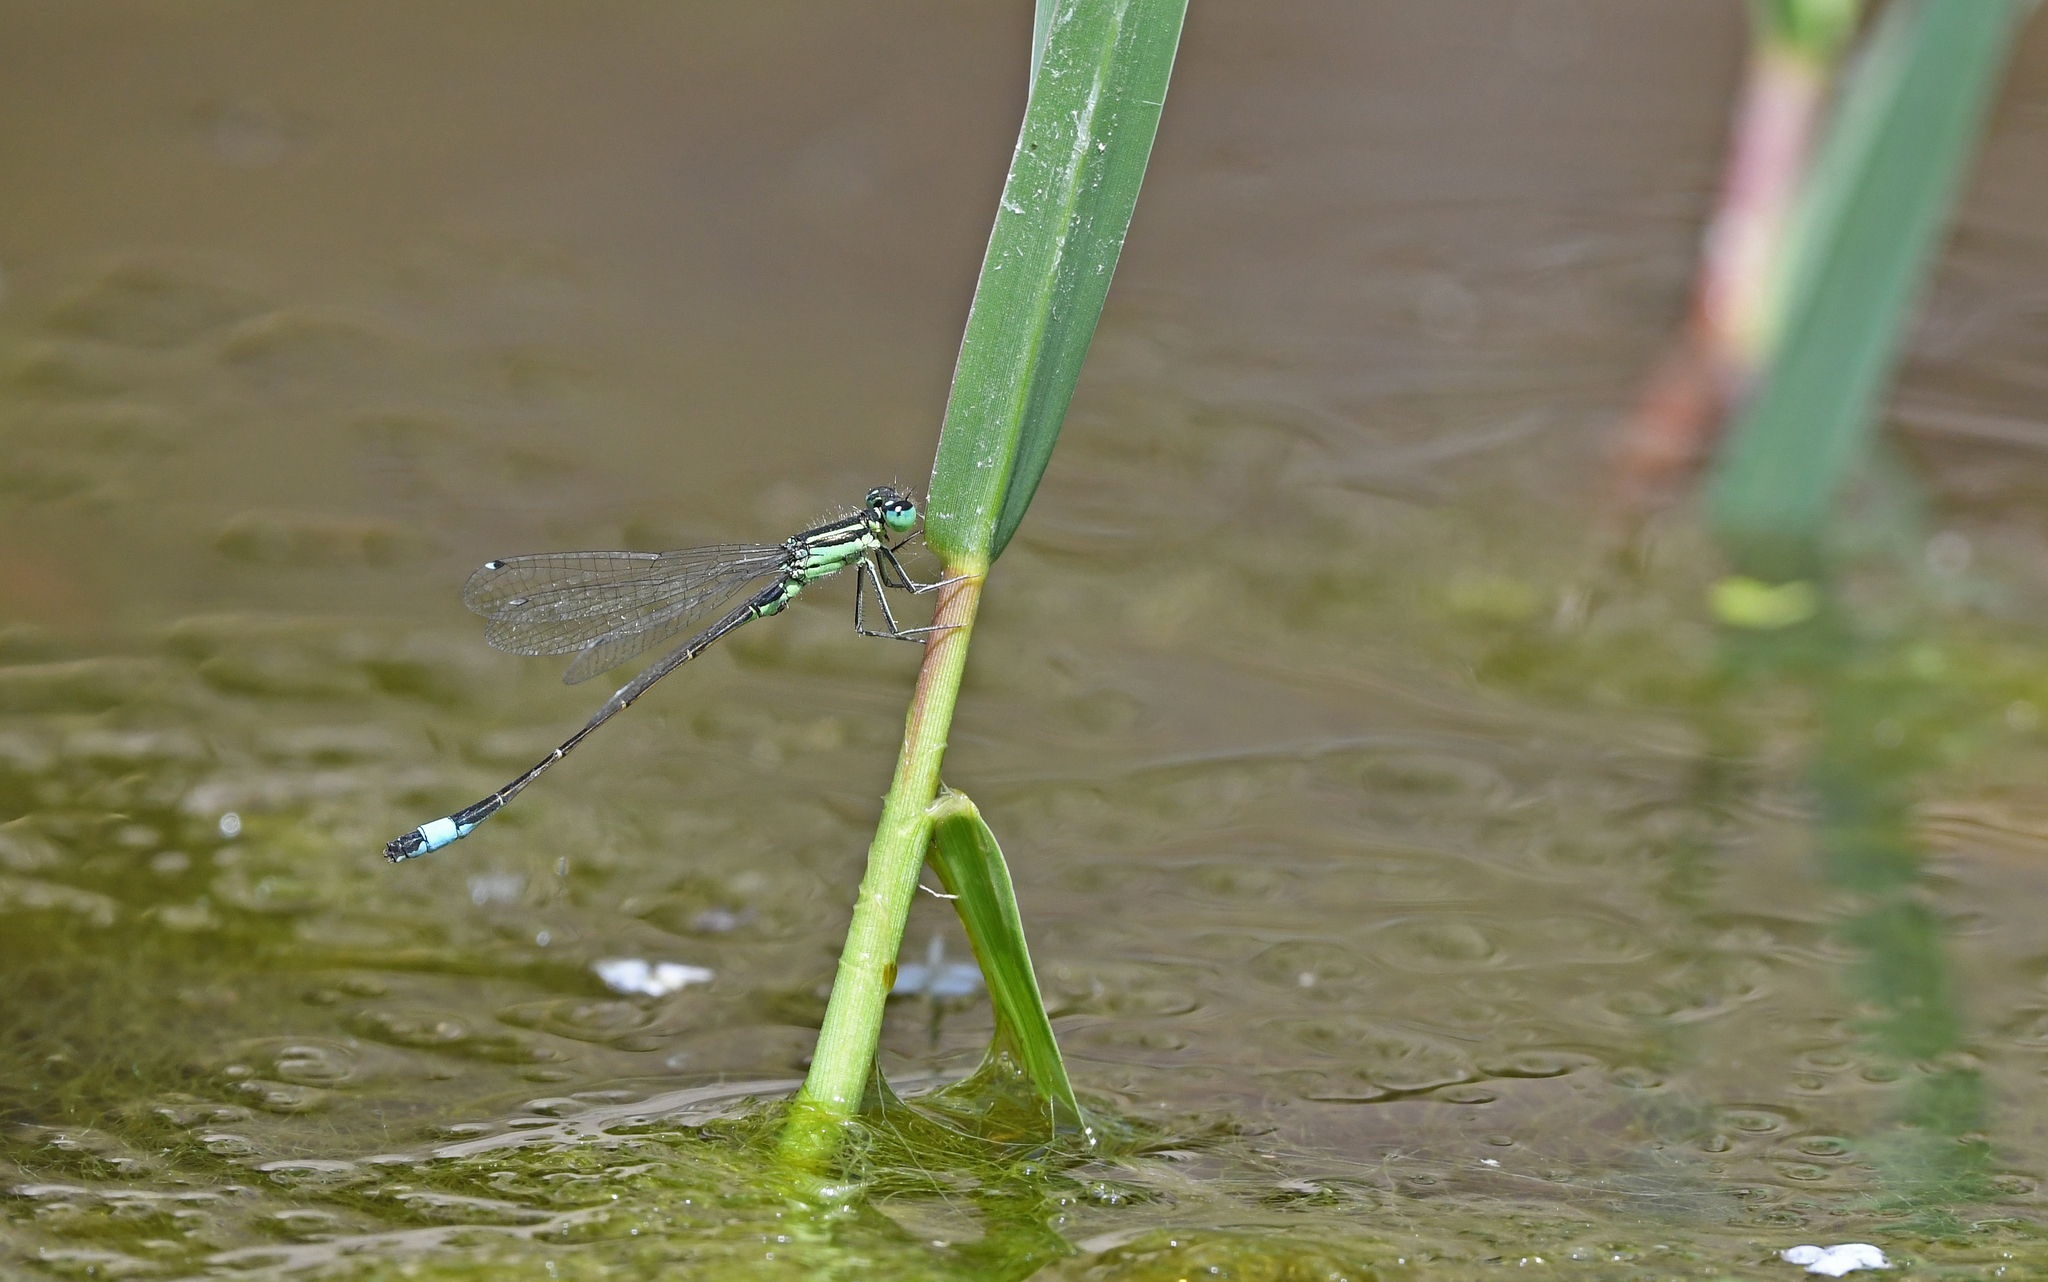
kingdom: Animalia
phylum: Arthropoda
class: Insecta
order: Odonata
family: Coenagrionidae
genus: Ischnura
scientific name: Ischnura genei
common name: Island bluetail
